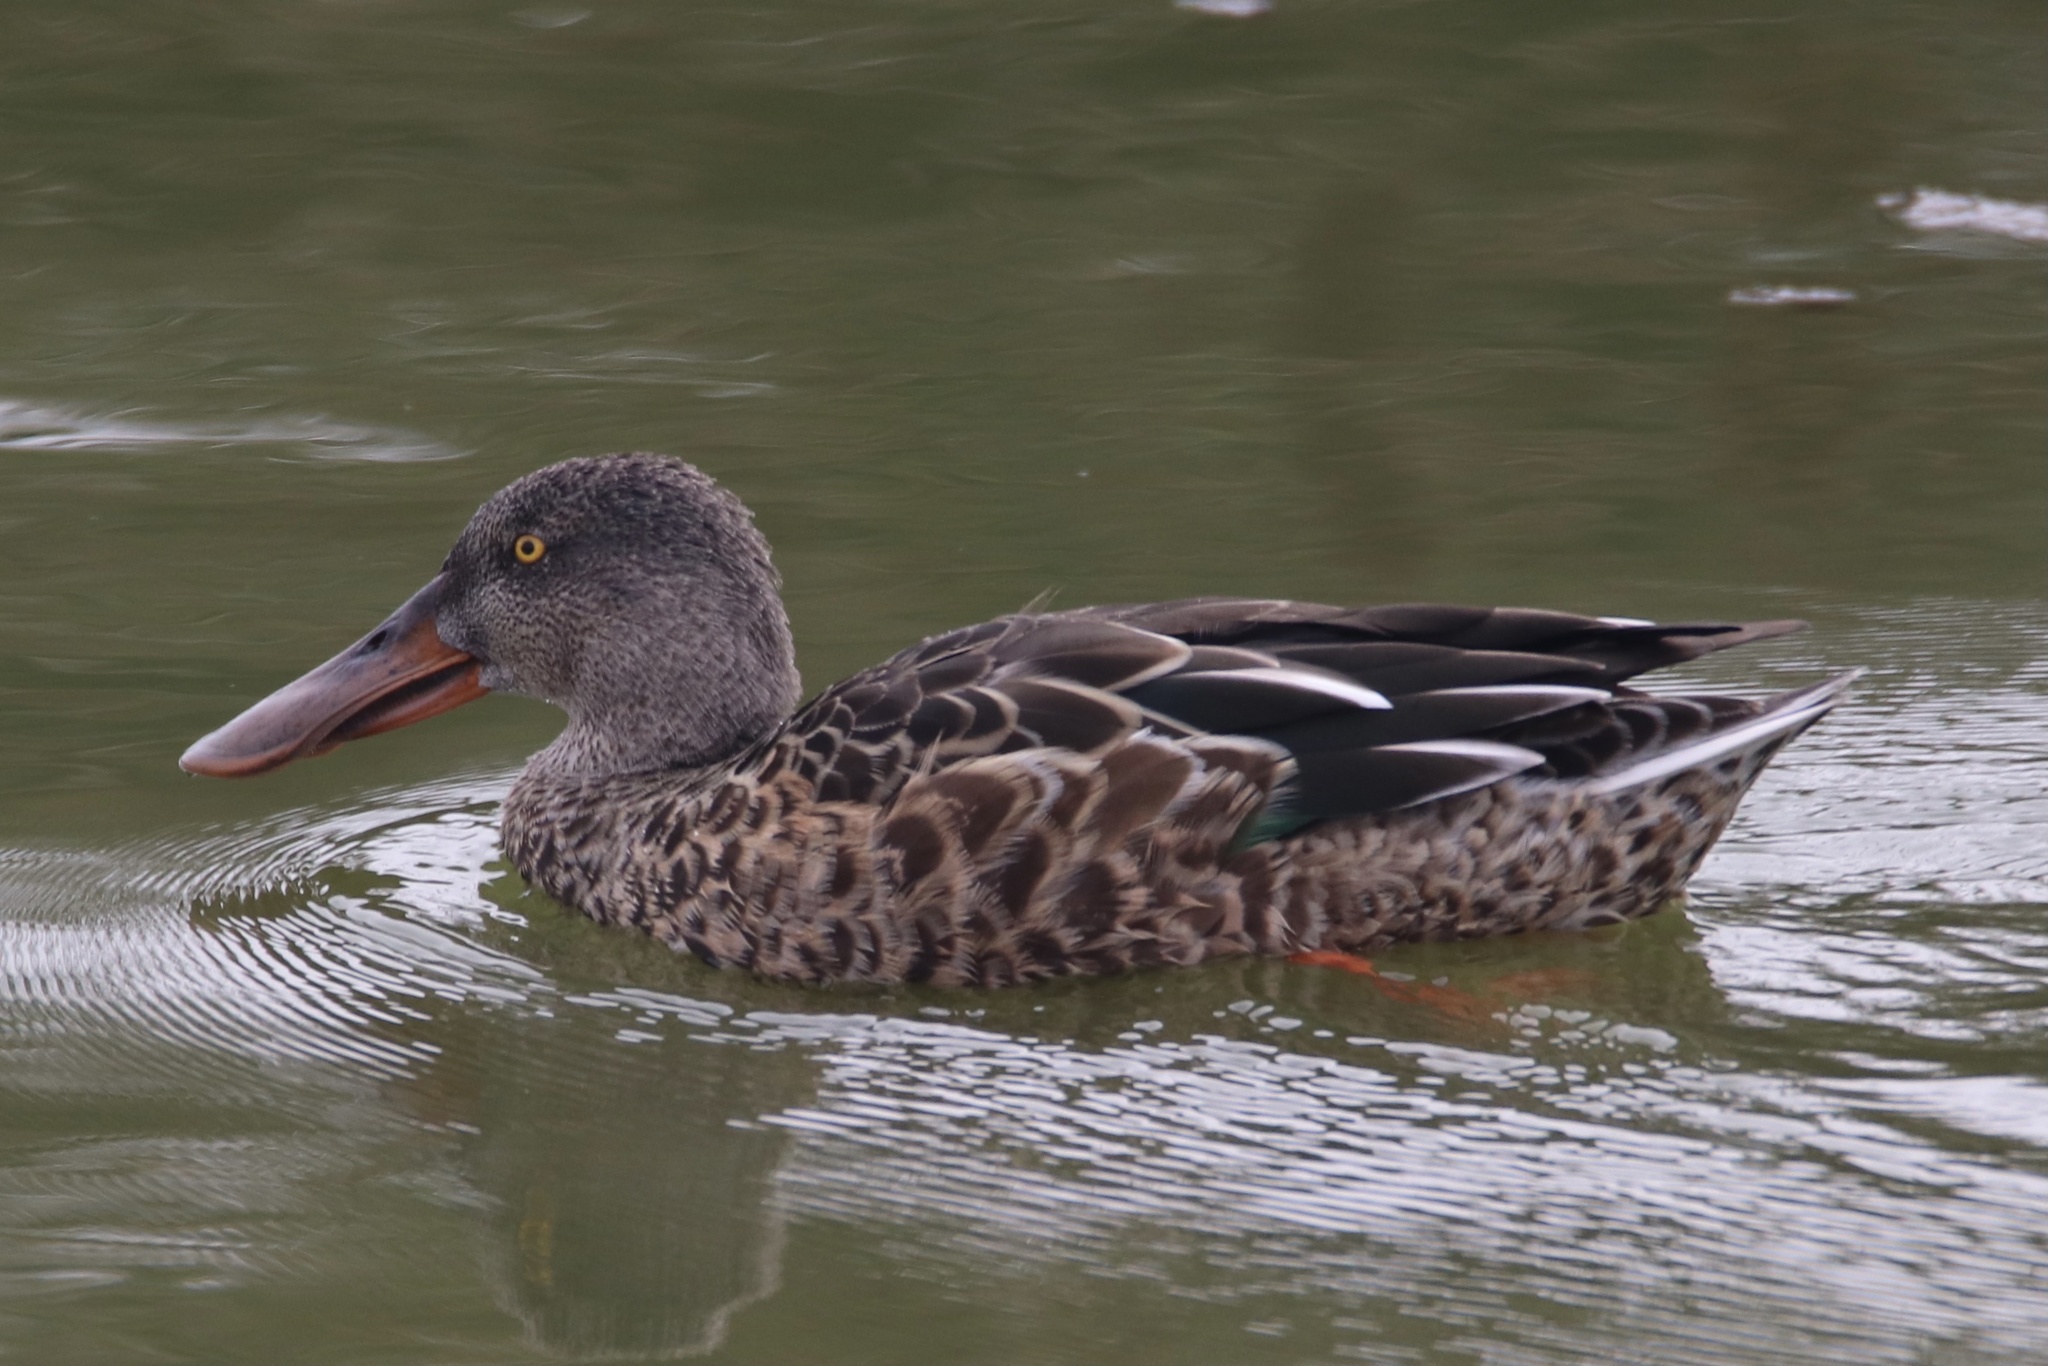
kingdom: Animalia
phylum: Chordata
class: Aves
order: Anseriformes
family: Anatidae
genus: Spatula
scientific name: Spatula clypeata
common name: Northern shoveler
